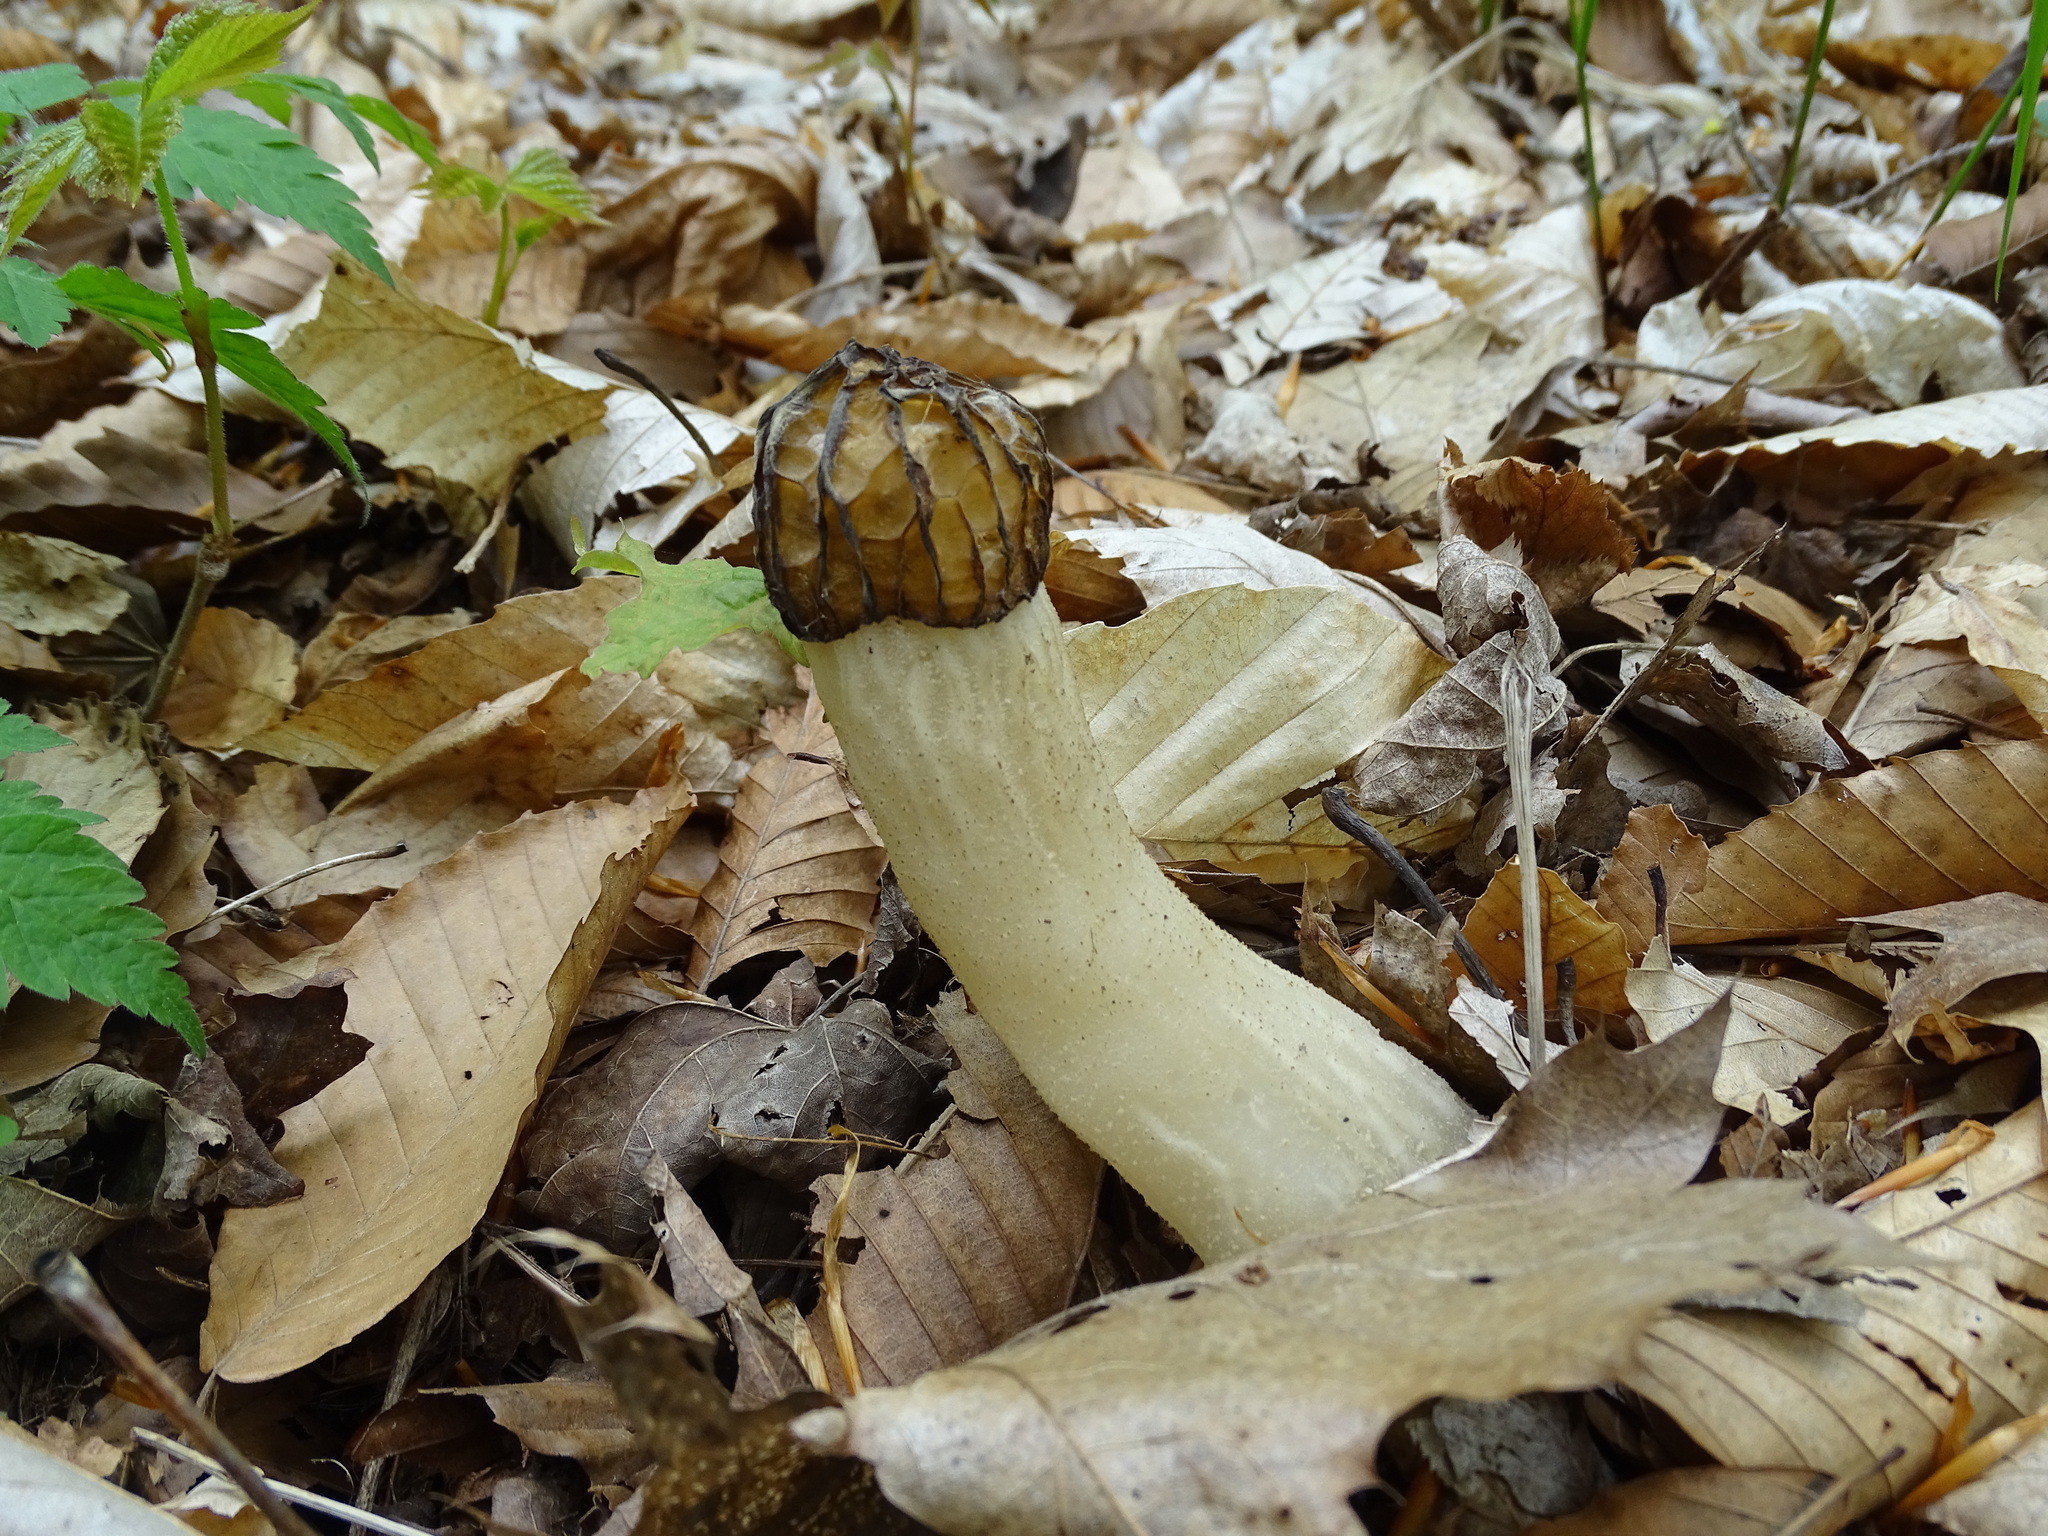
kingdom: Fungi
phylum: Ascomycota
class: Pezizomycetes
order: Pezizales
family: Morchellaceae
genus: Morchella
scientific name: Morchella punctipes
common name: Half-free morel
